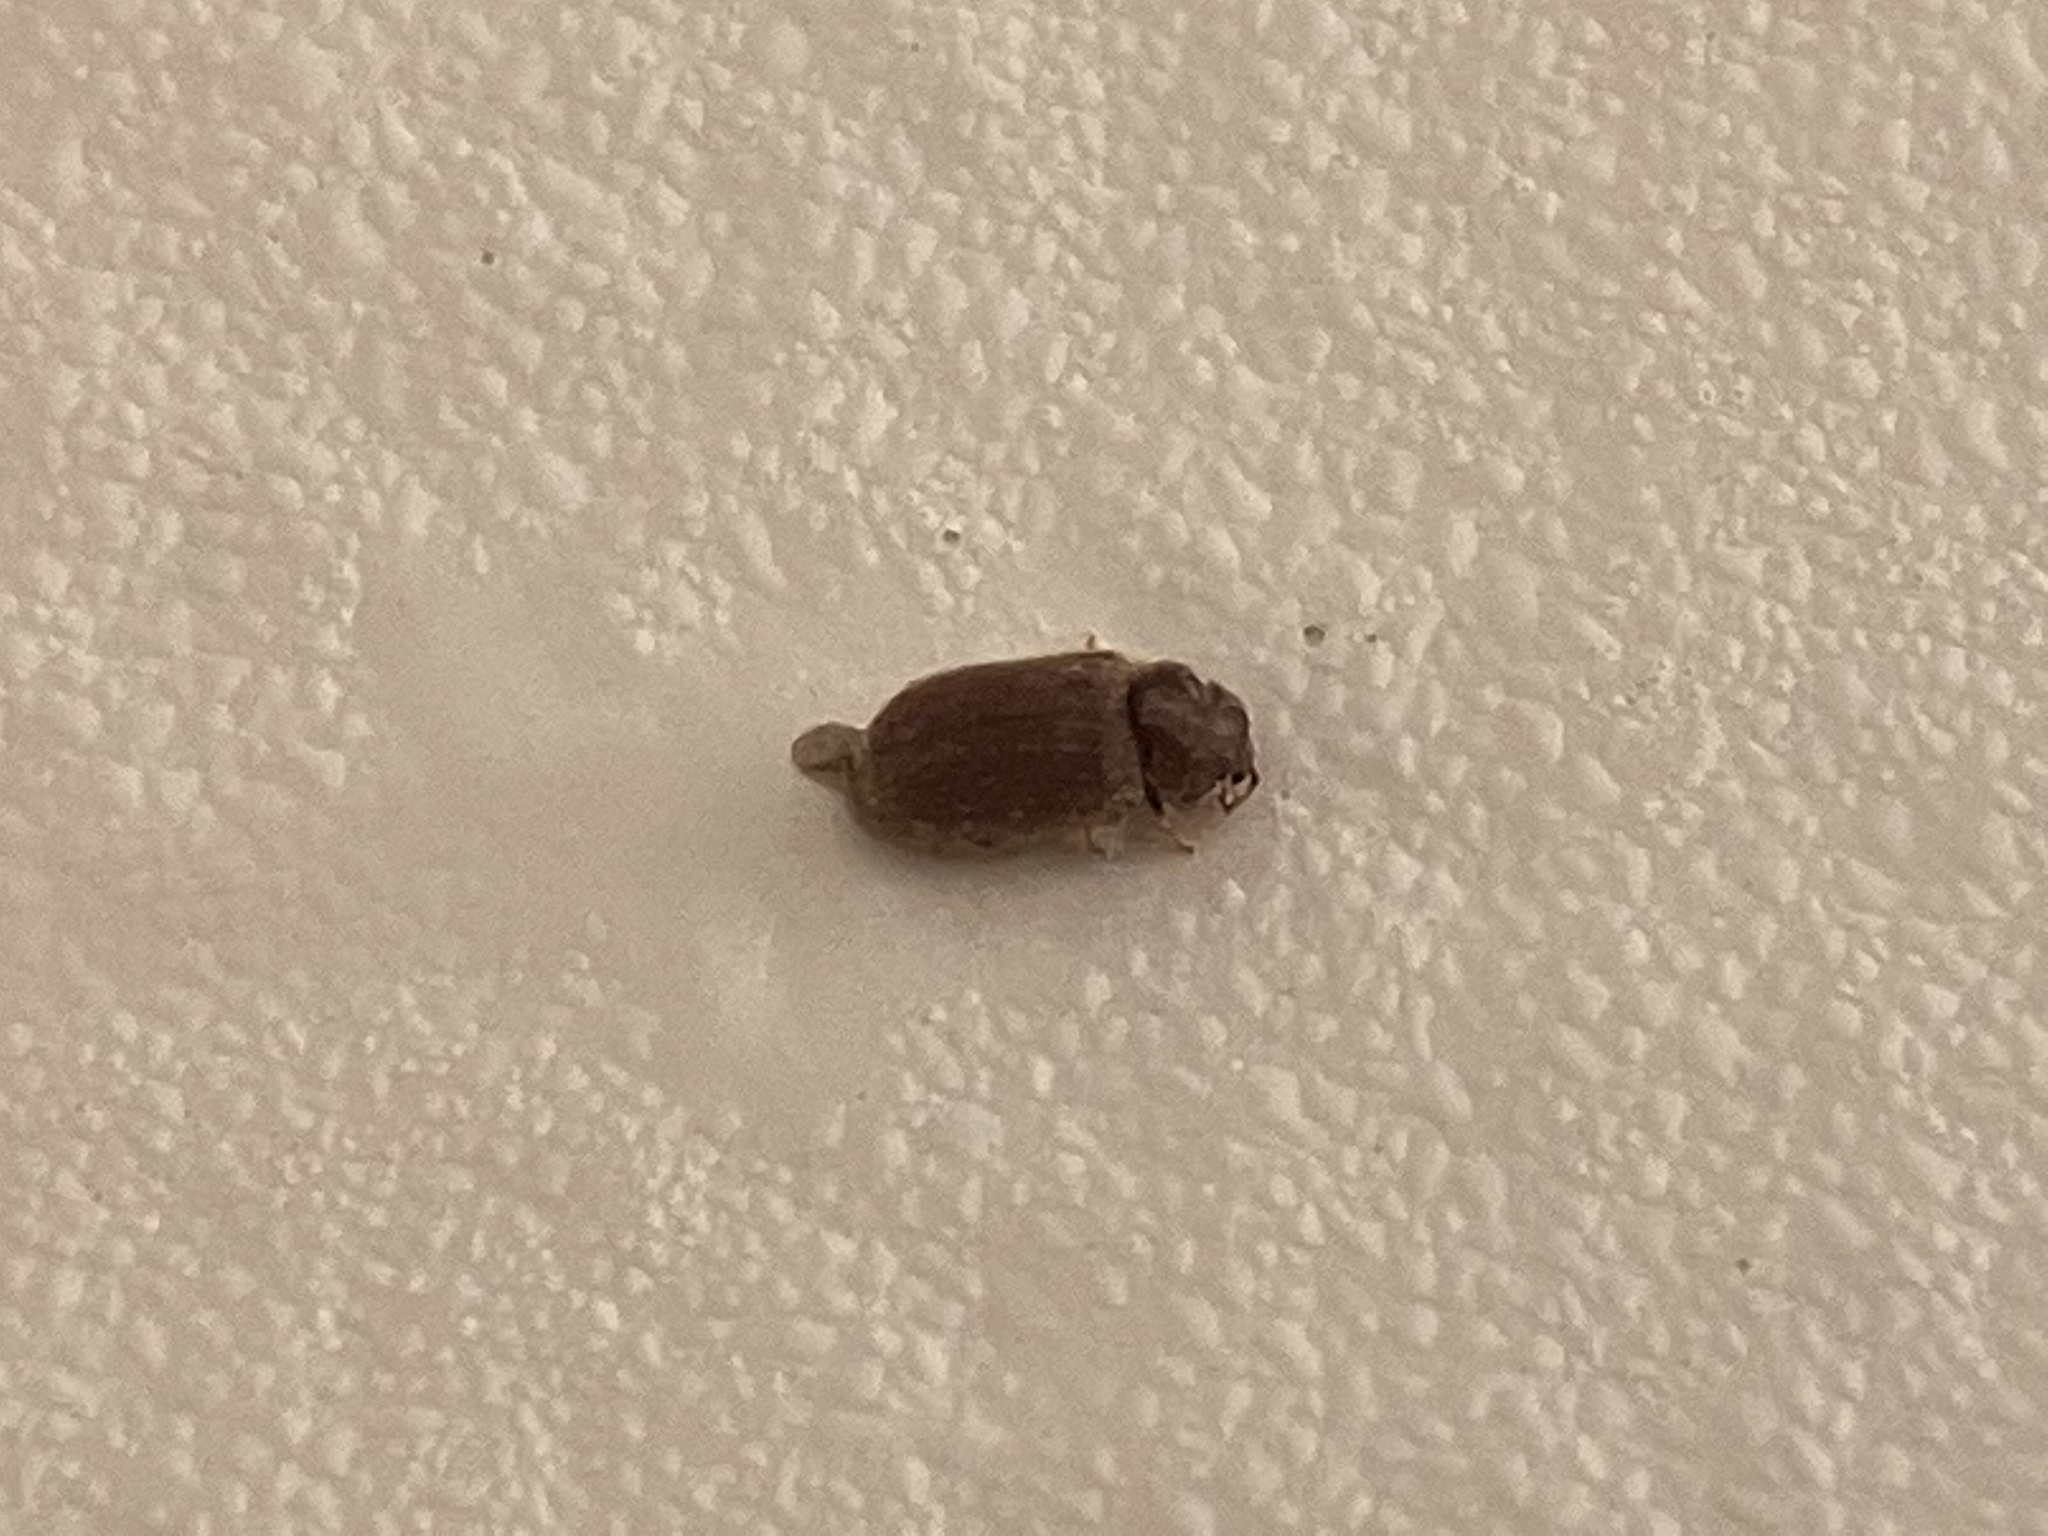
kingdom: Animalia
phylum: Arthropoda
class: Insecta
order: Coleoptera
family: Anobiidae
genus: Stegobium
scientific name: Stegobium paniceum
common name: Drugstore beetle
